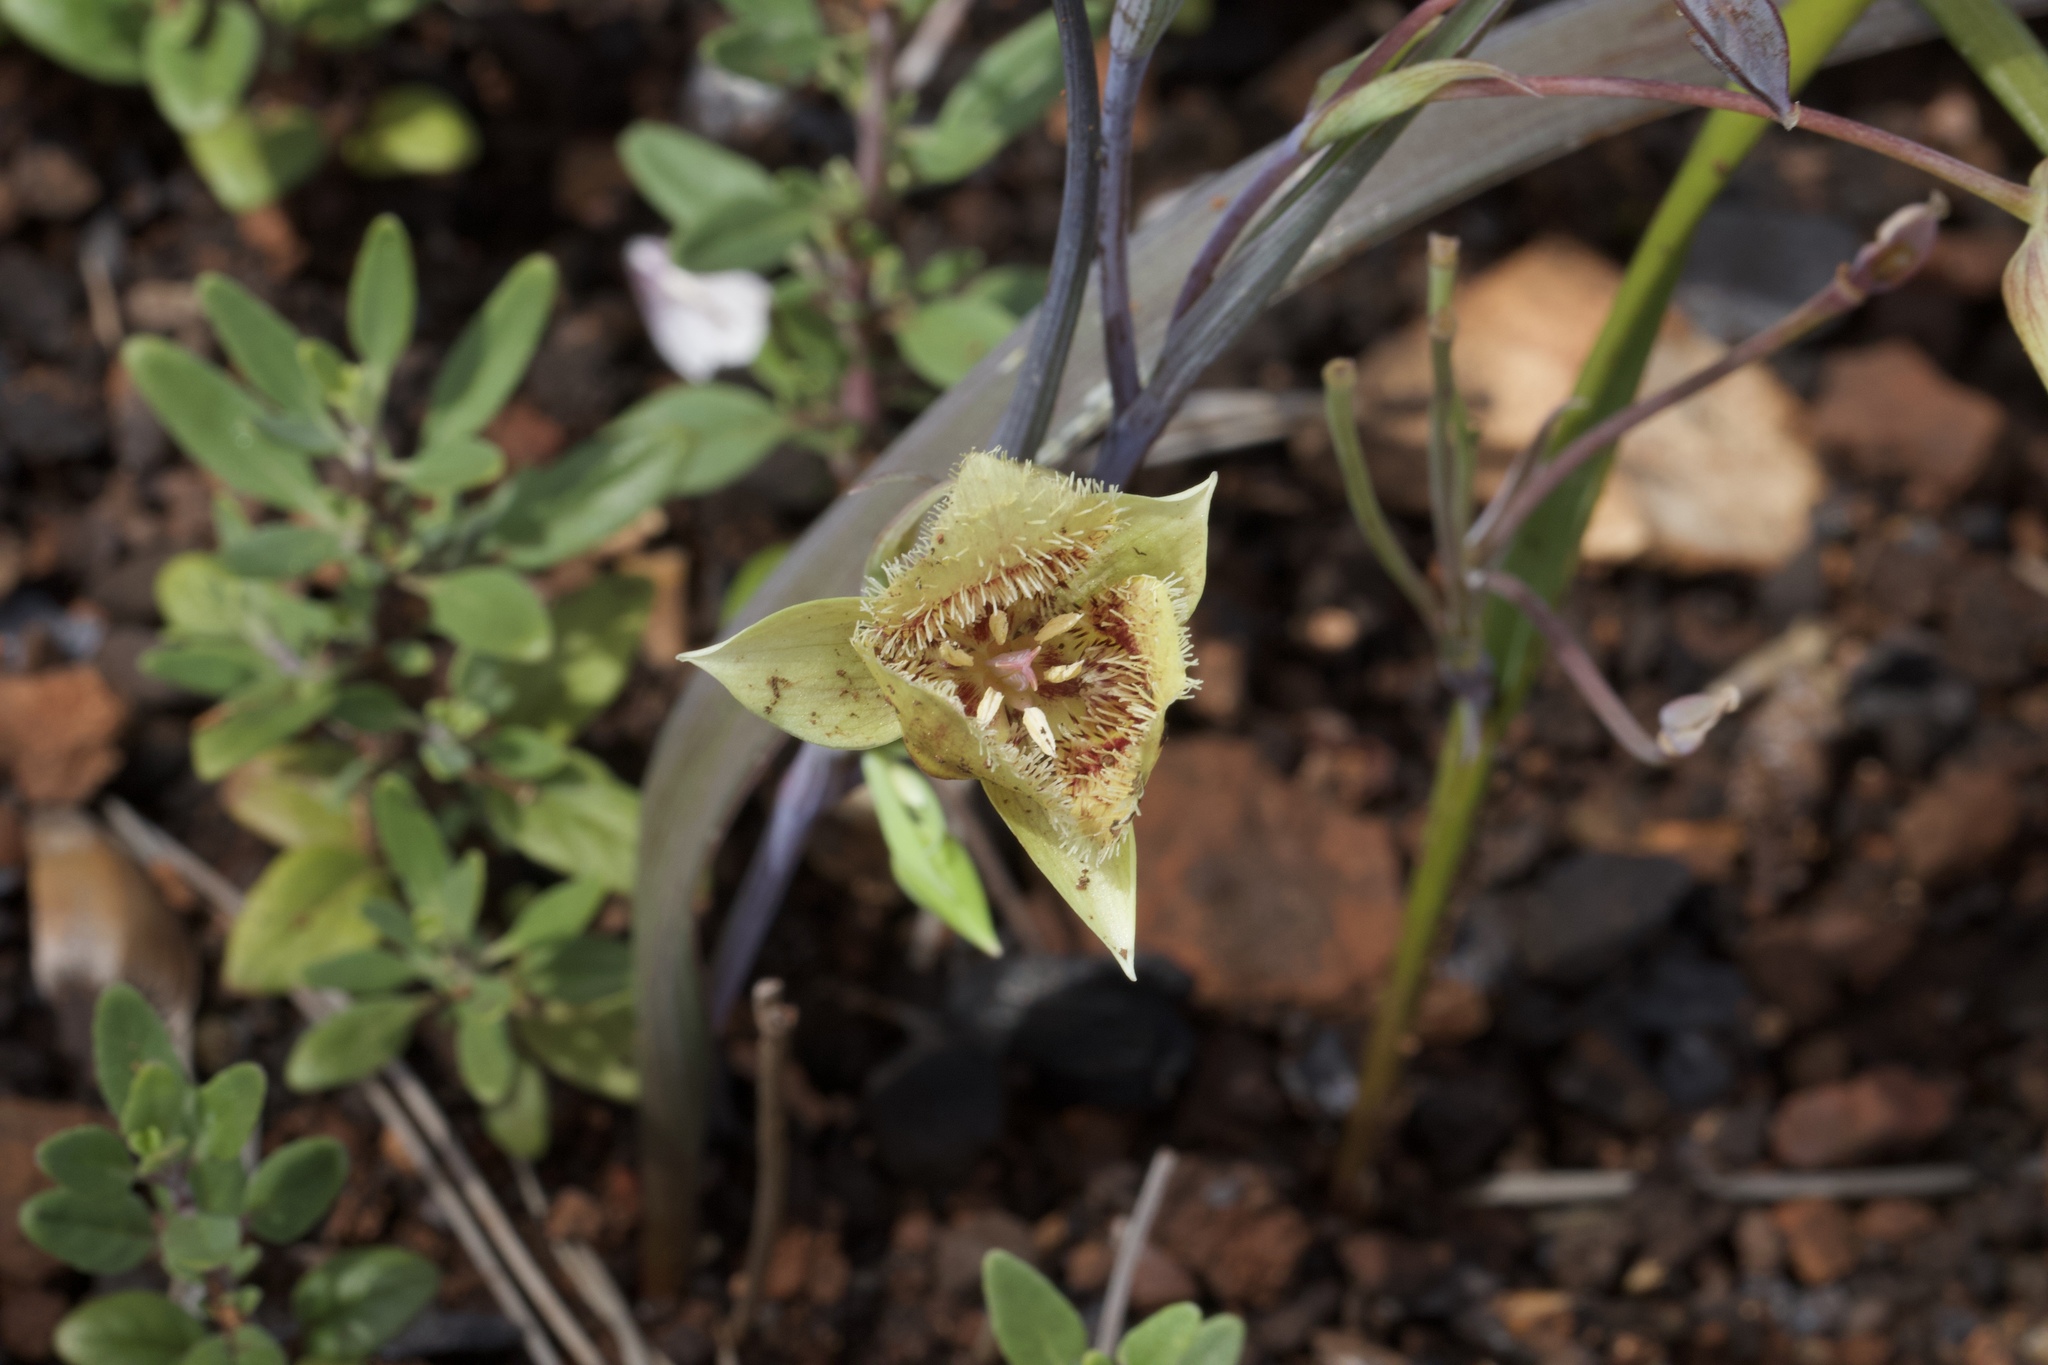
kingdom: Plantae
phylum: Tracheophyta
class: Liliopsida
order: Liliales
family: Liliaceae
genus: Calochortus
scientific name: Calochortus
